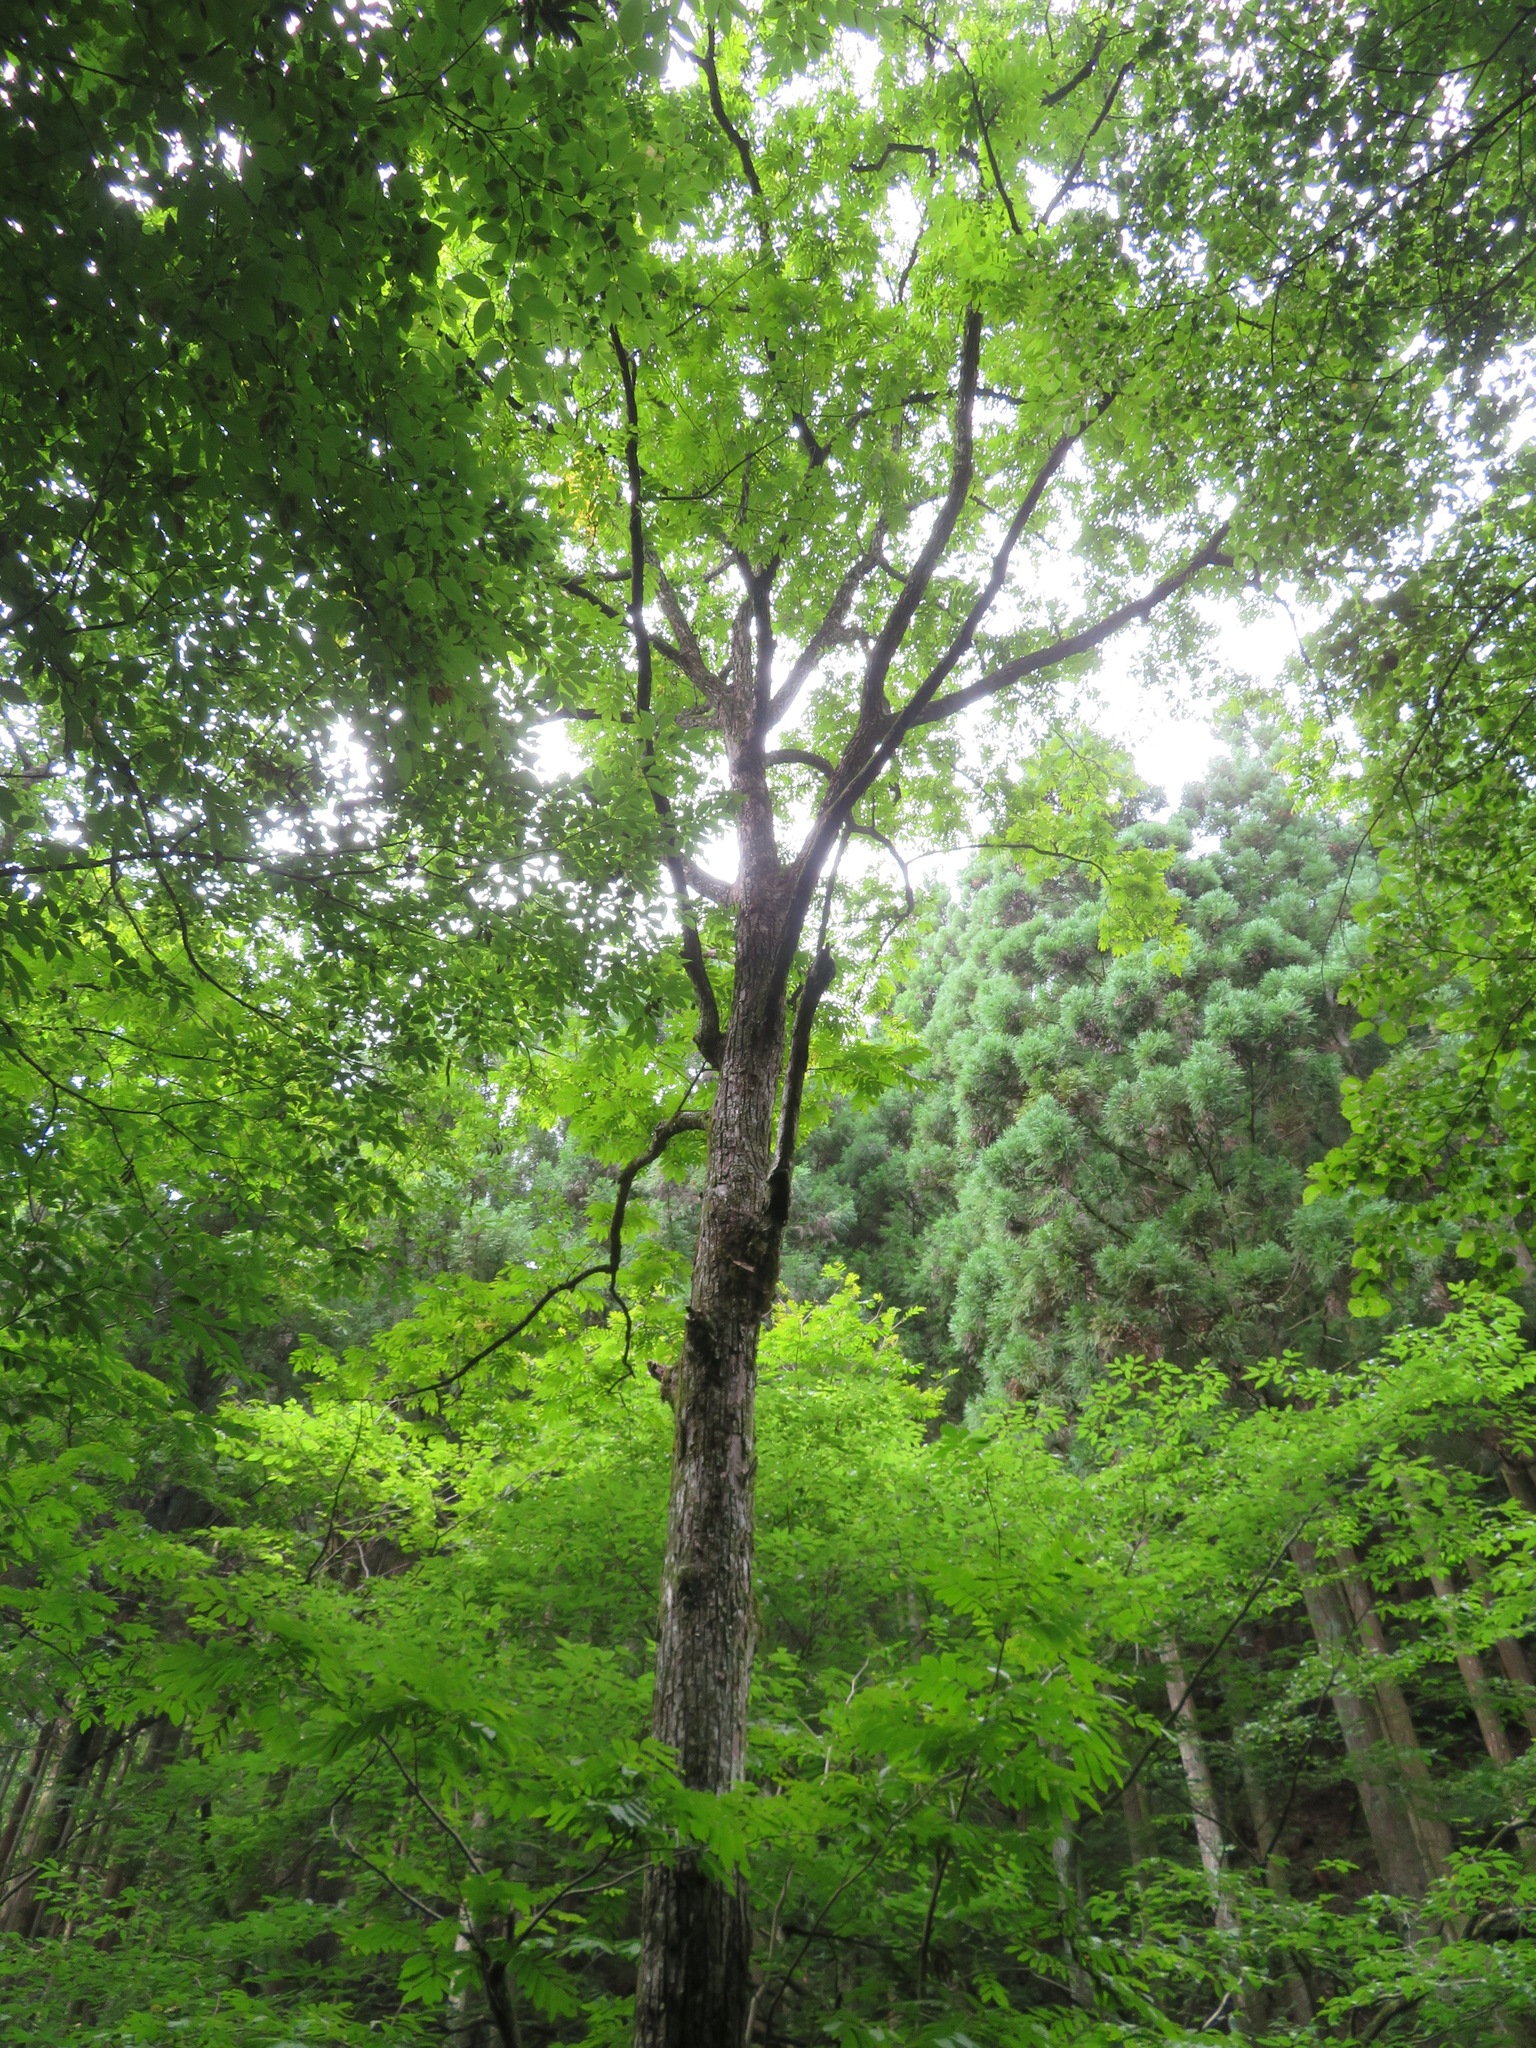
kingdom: Plantae
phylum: Tracheophyta
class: Magnoliopsida
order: Fagales
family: Juglandaceae
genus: Pterocarya
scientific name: Pterocarya rhoifolia
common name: Japanese wingnut
